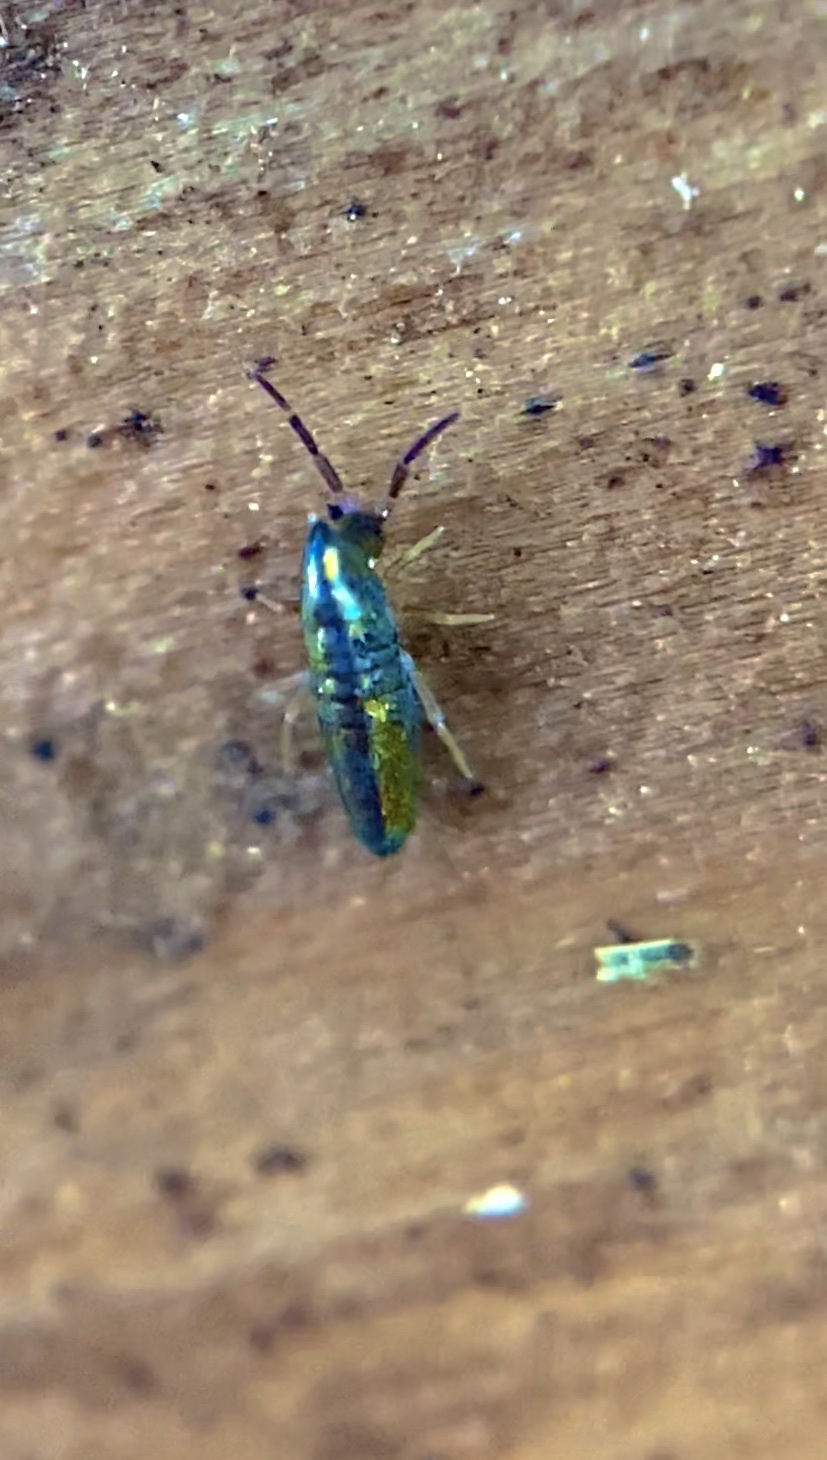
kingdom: Animalia
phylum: Arthropoda
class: Collembola
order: Entomobryomorpha
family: Entomobryidae
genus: Lepidocyrtus
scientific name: Lepidocyrtus paradoxus
